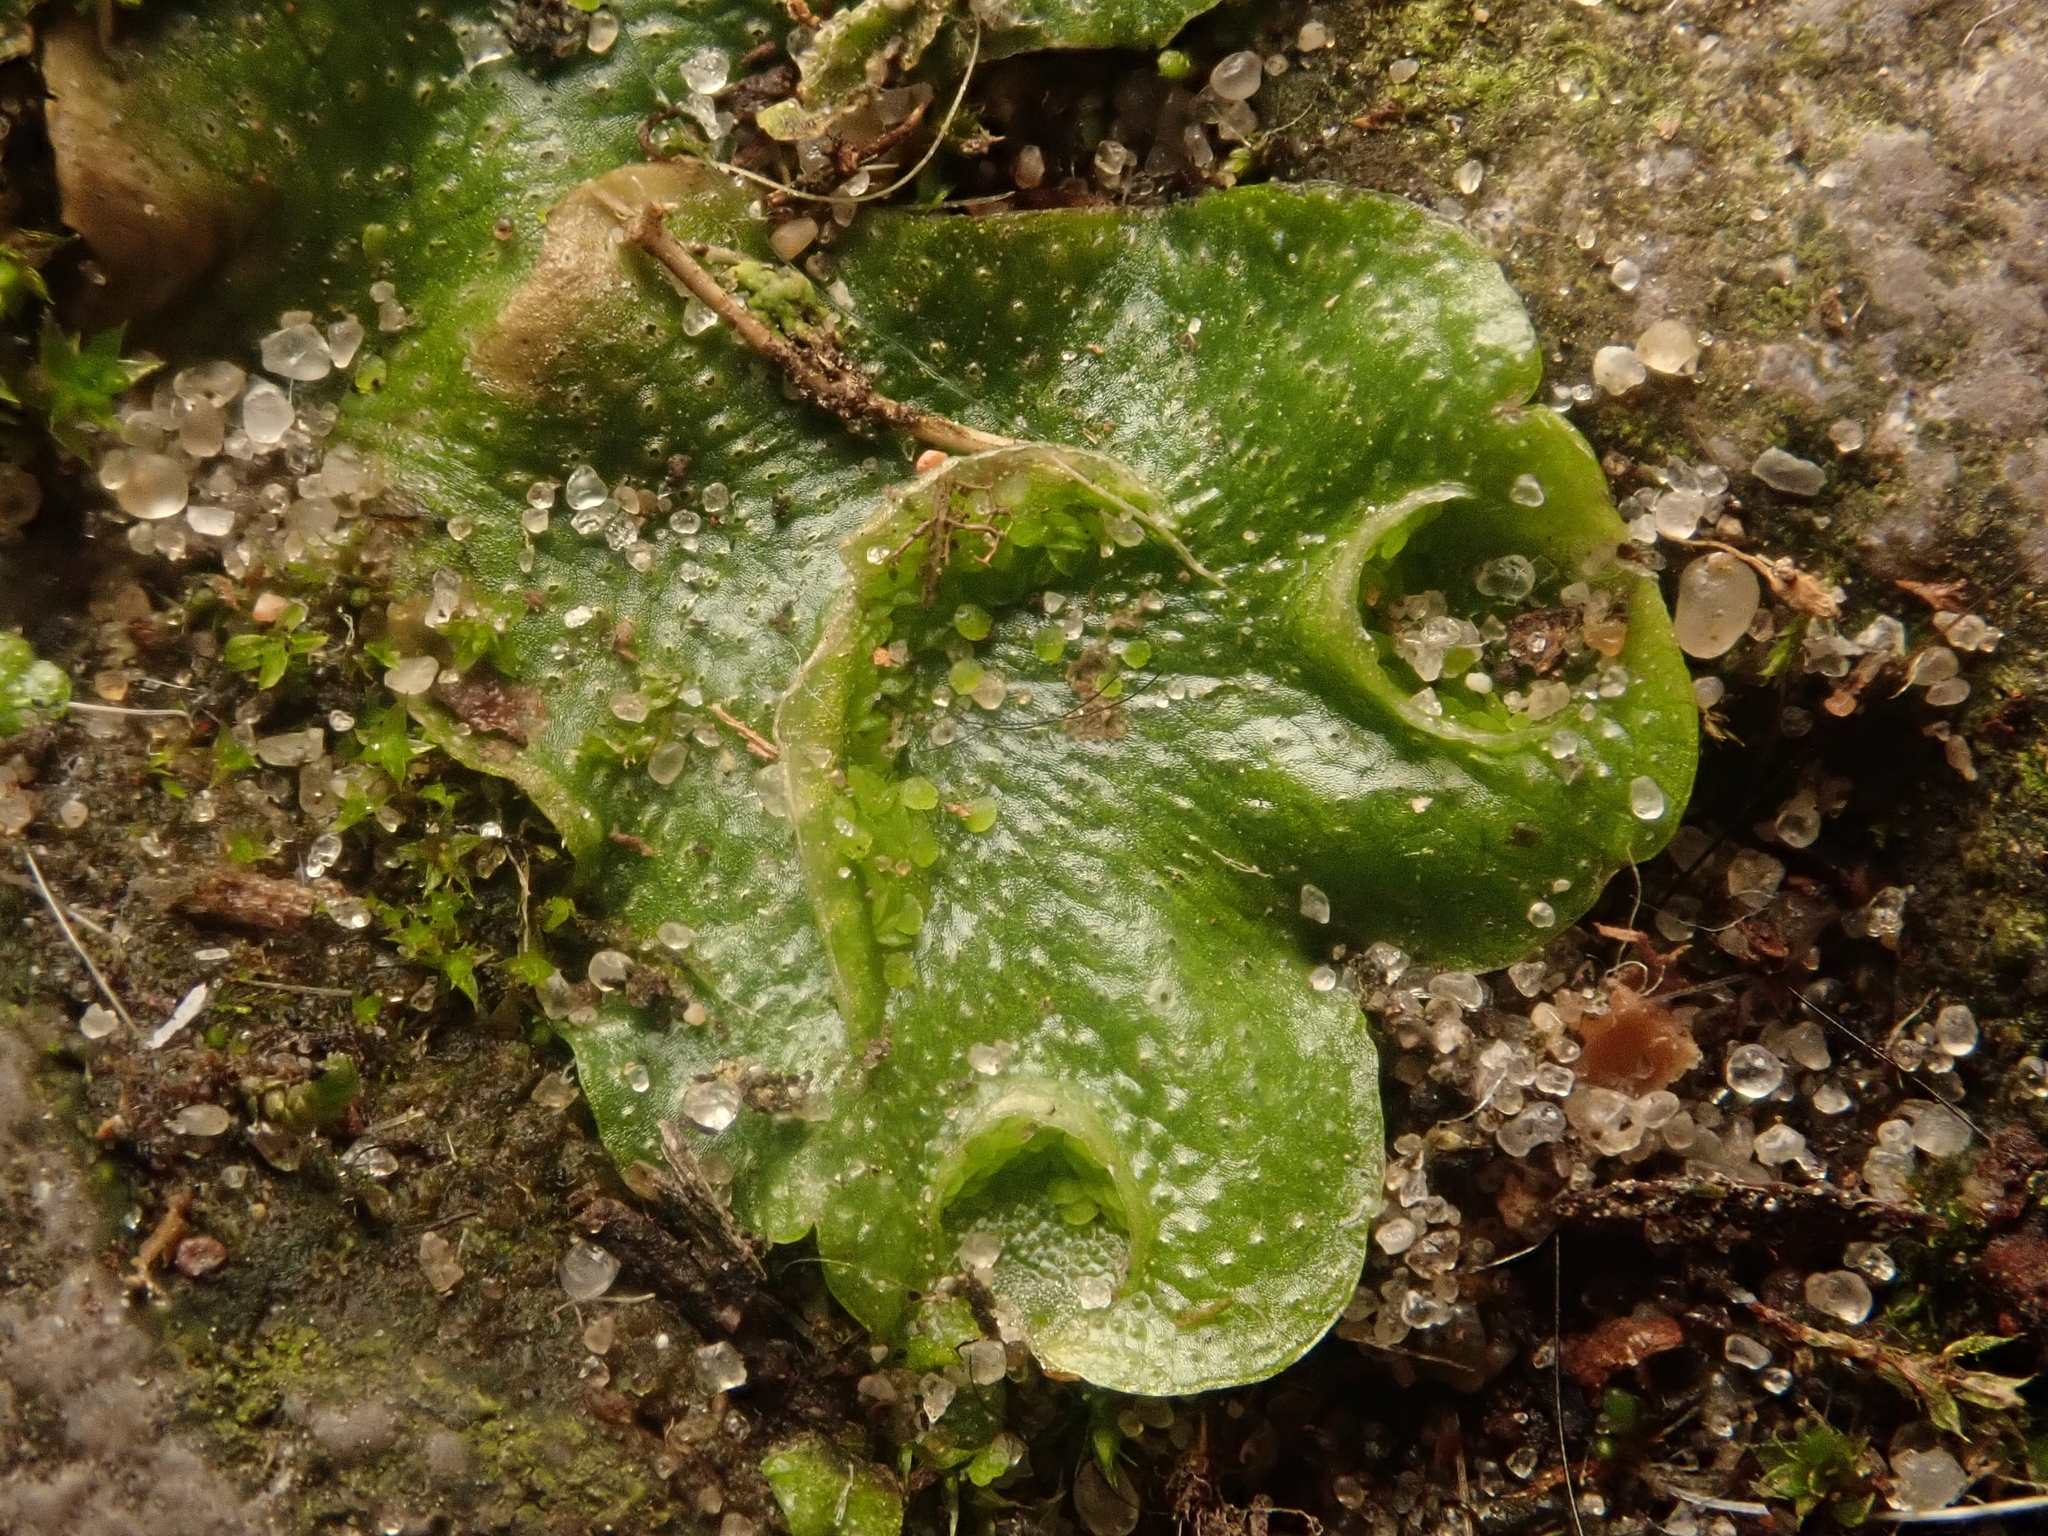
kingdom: Plantae
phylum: Marchantiophyta
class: Marchantiopsida
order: Lunulariales
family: Lunulariaceae
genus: Lunularia
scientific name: Lunularia cruciata
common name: Crescent-cup liverwort
